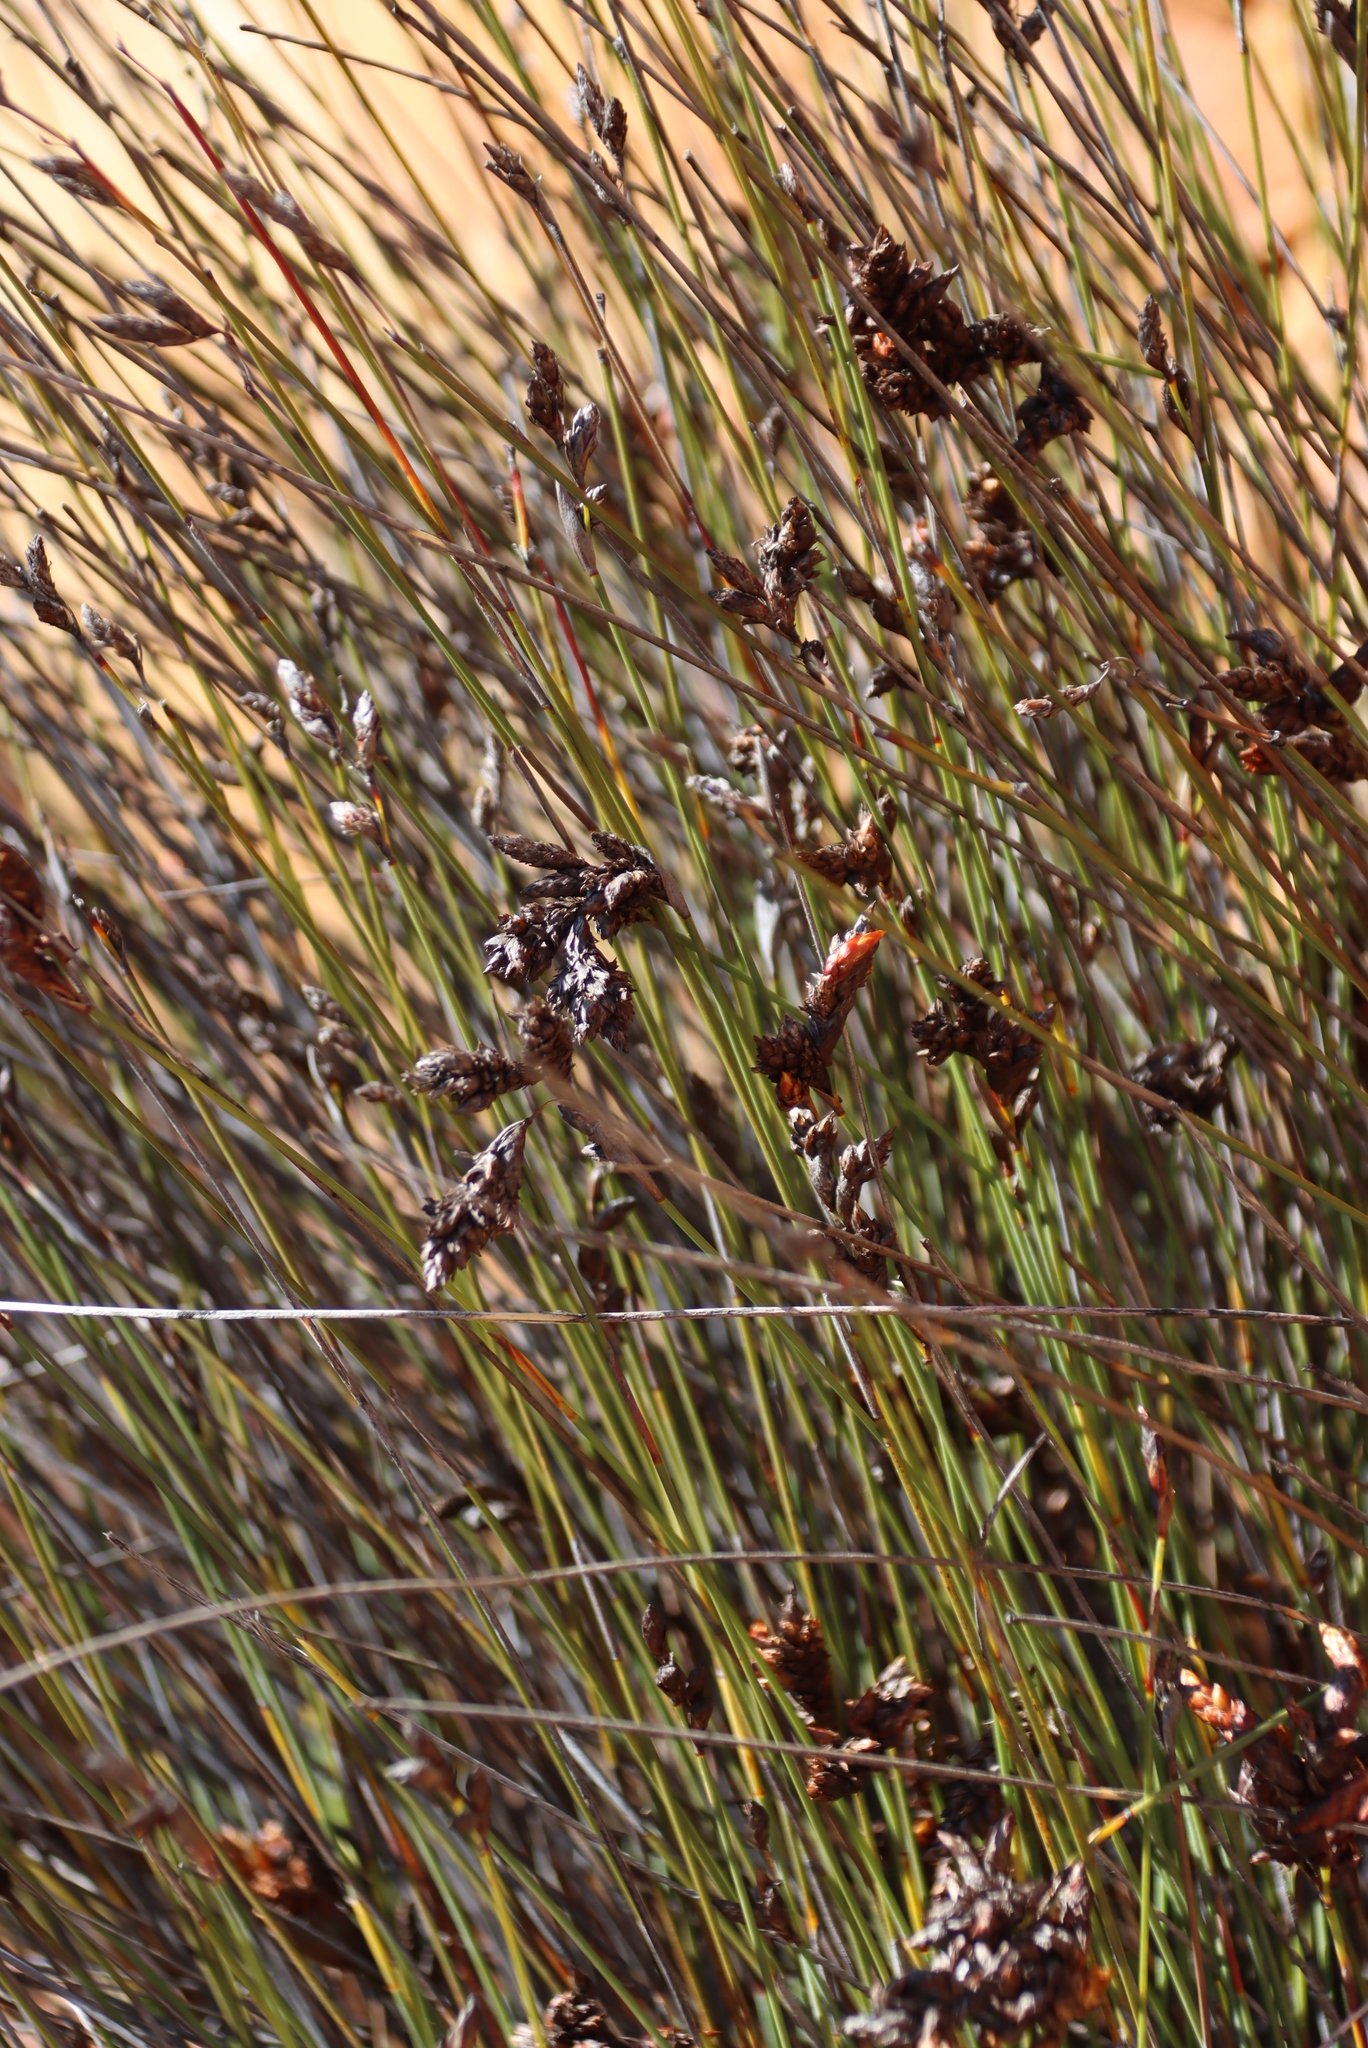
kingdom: Plantae
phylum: Tracheophyta
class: Liliopsida
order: Poales
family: Restionaceae
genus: Hypodiscus
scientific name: Hypodiscus striatus
